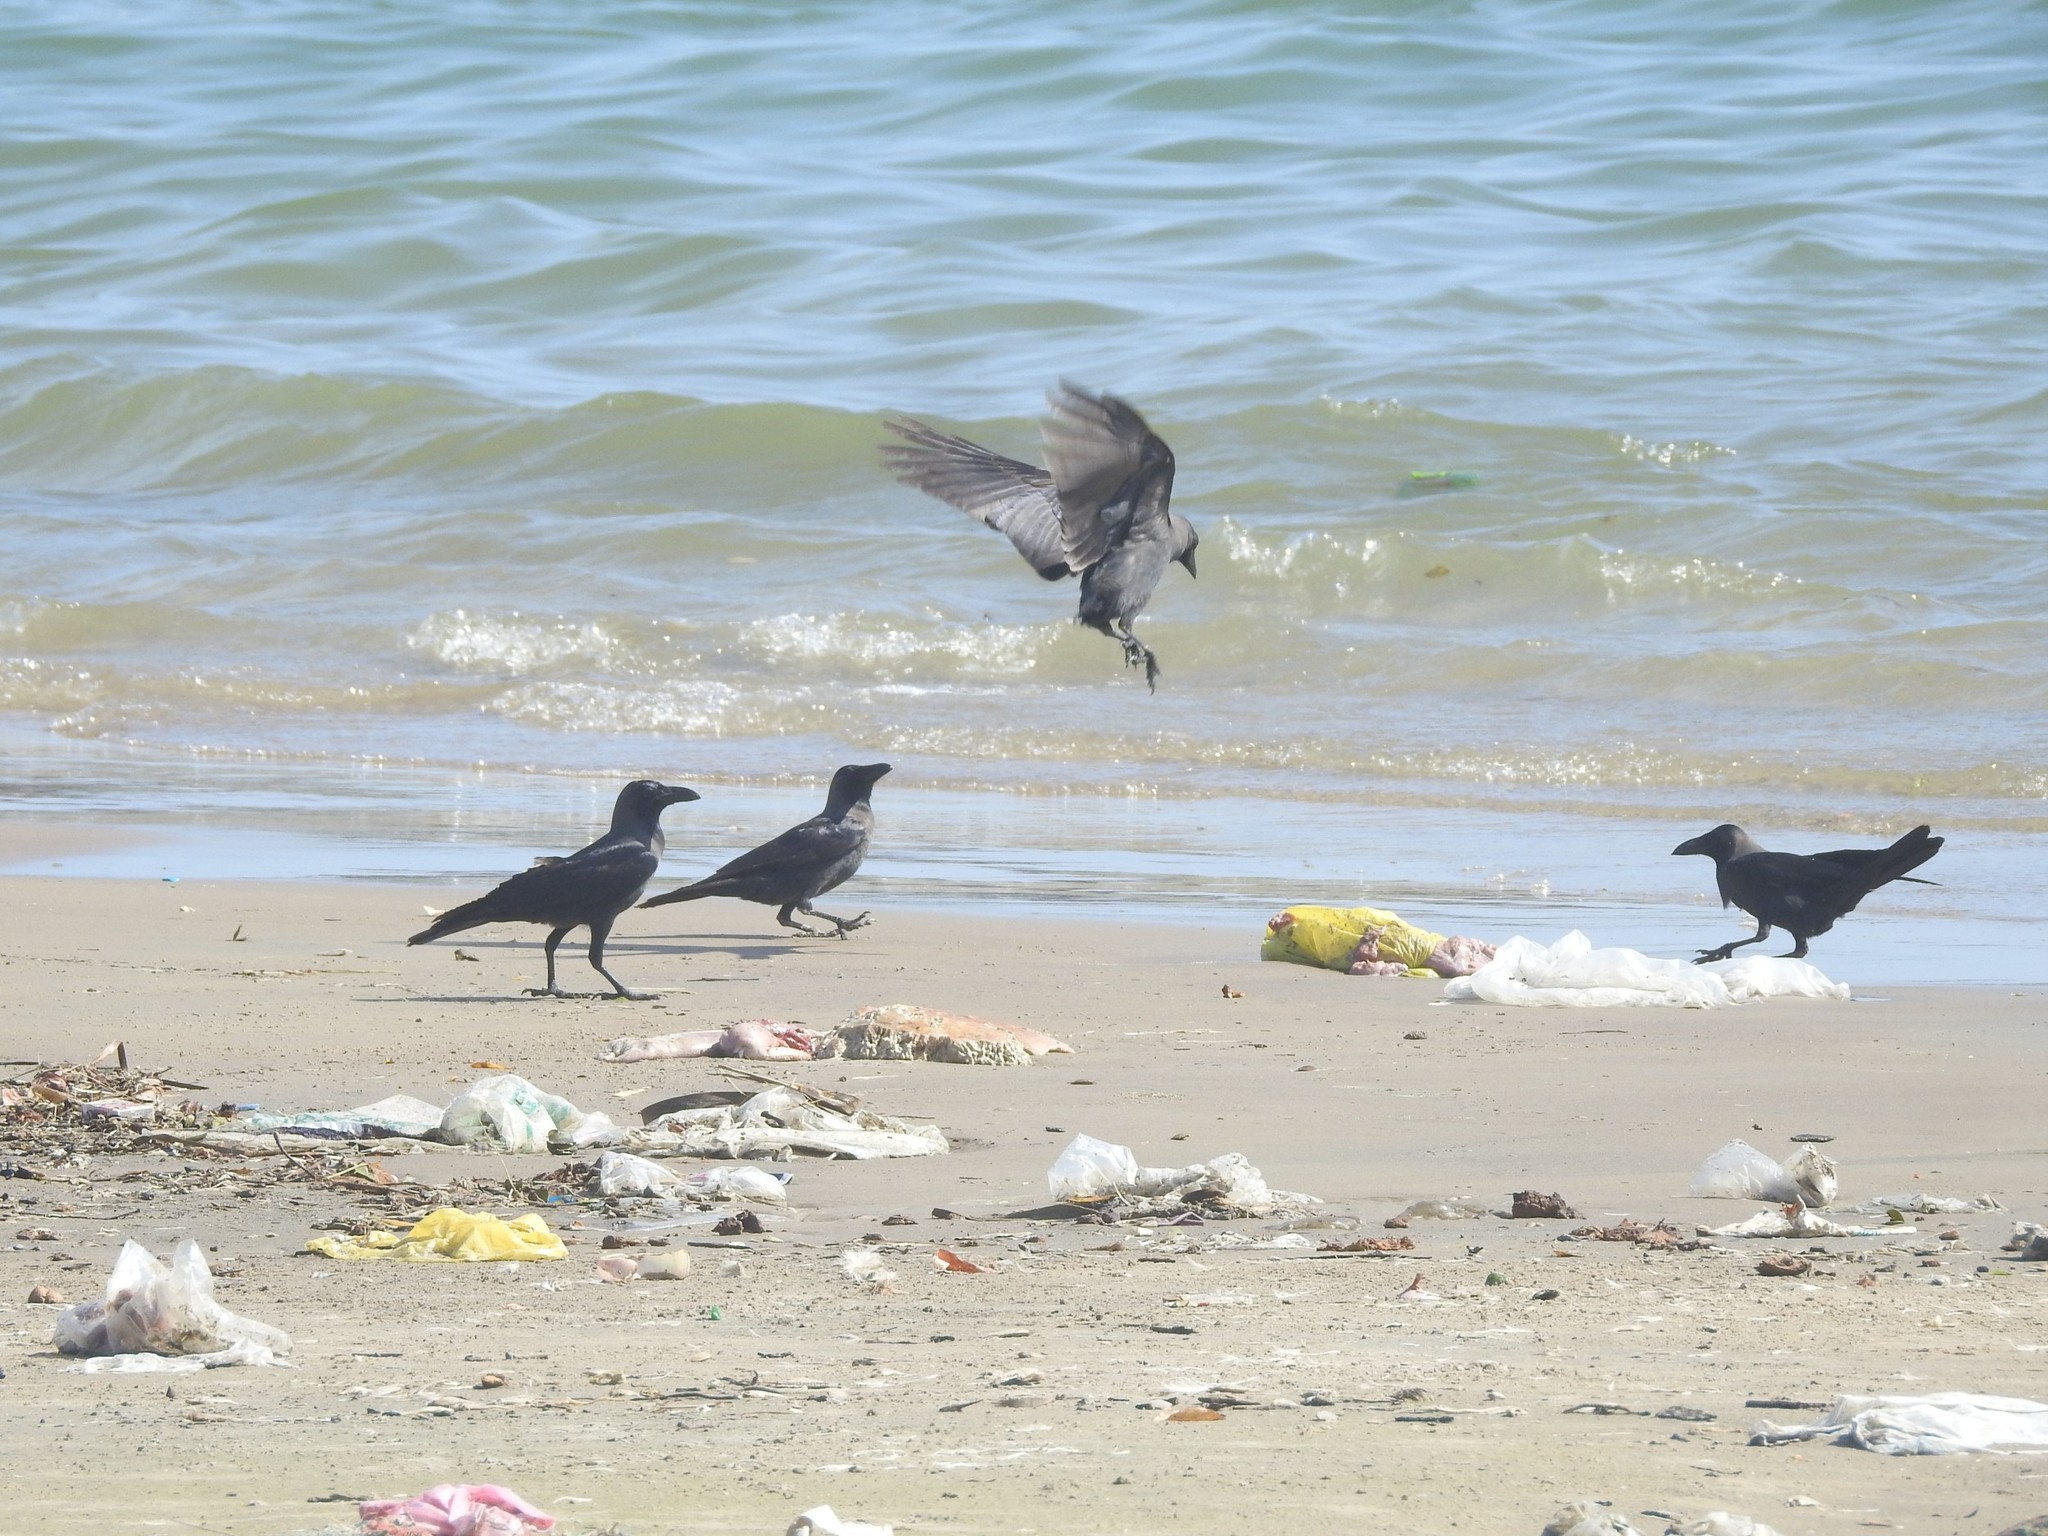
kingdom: Animalia
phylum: Chordata
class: Aves
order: Passeriformes
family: Corvidae
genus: Corvus
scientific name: Corvus splendens
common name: House crow
